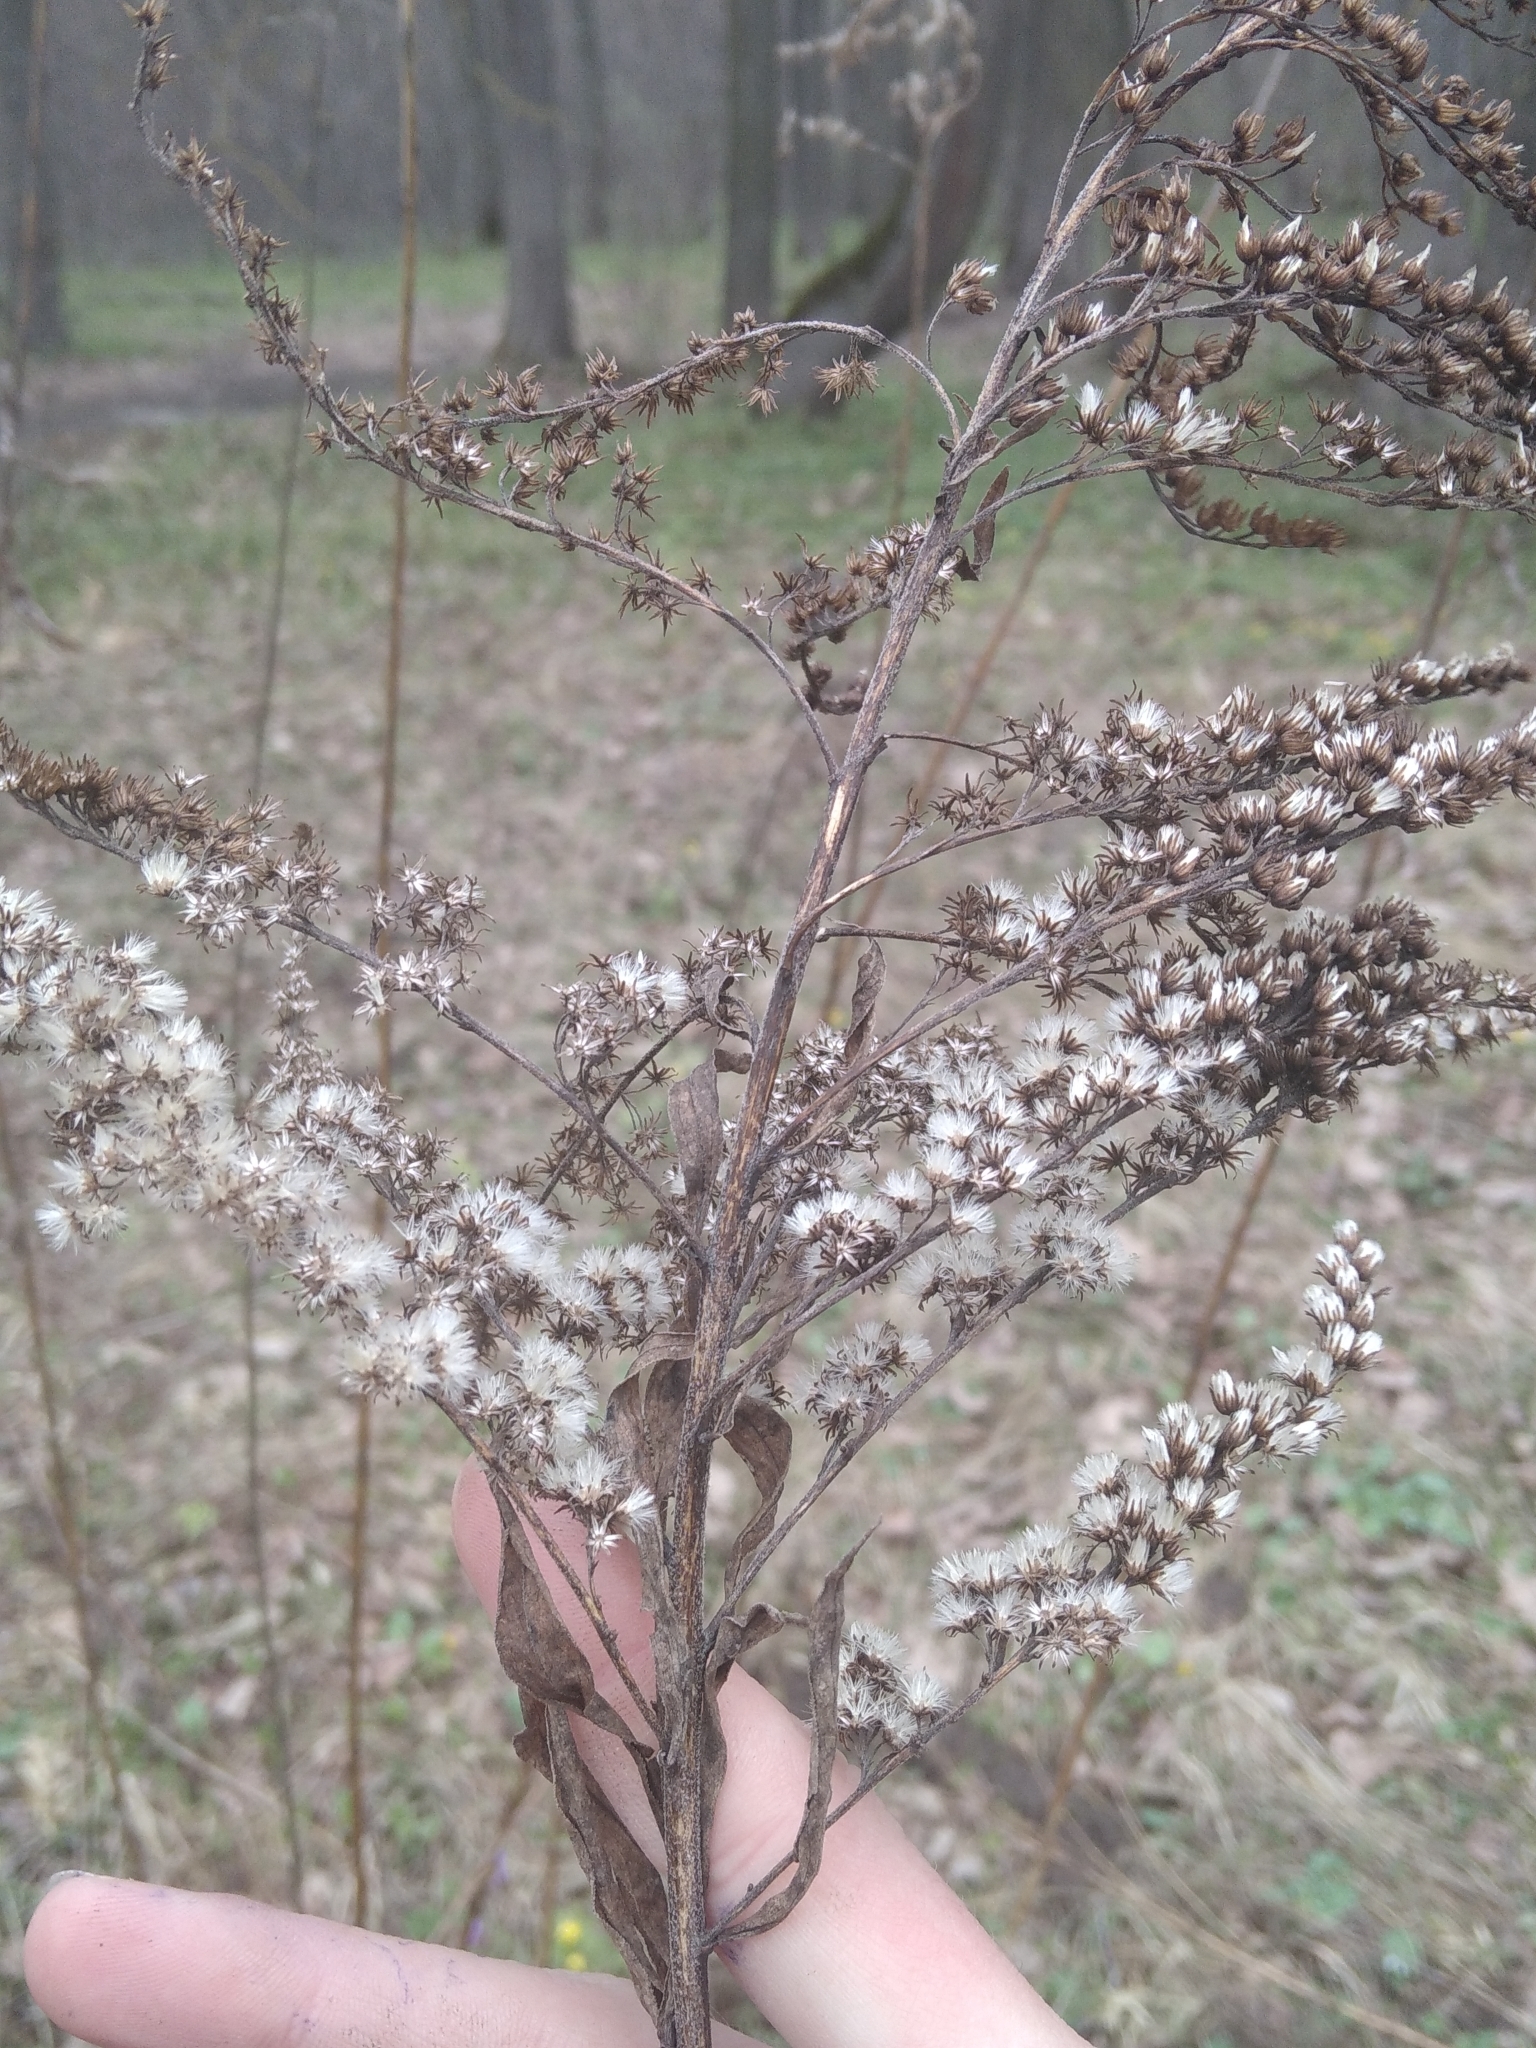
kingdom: Plantae
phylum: Tracheophyta
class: Magnoliopsida
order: Asterales
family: Asteraceae
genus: Solidago
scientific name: Solidago canadensis
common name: Canada goldenrod
